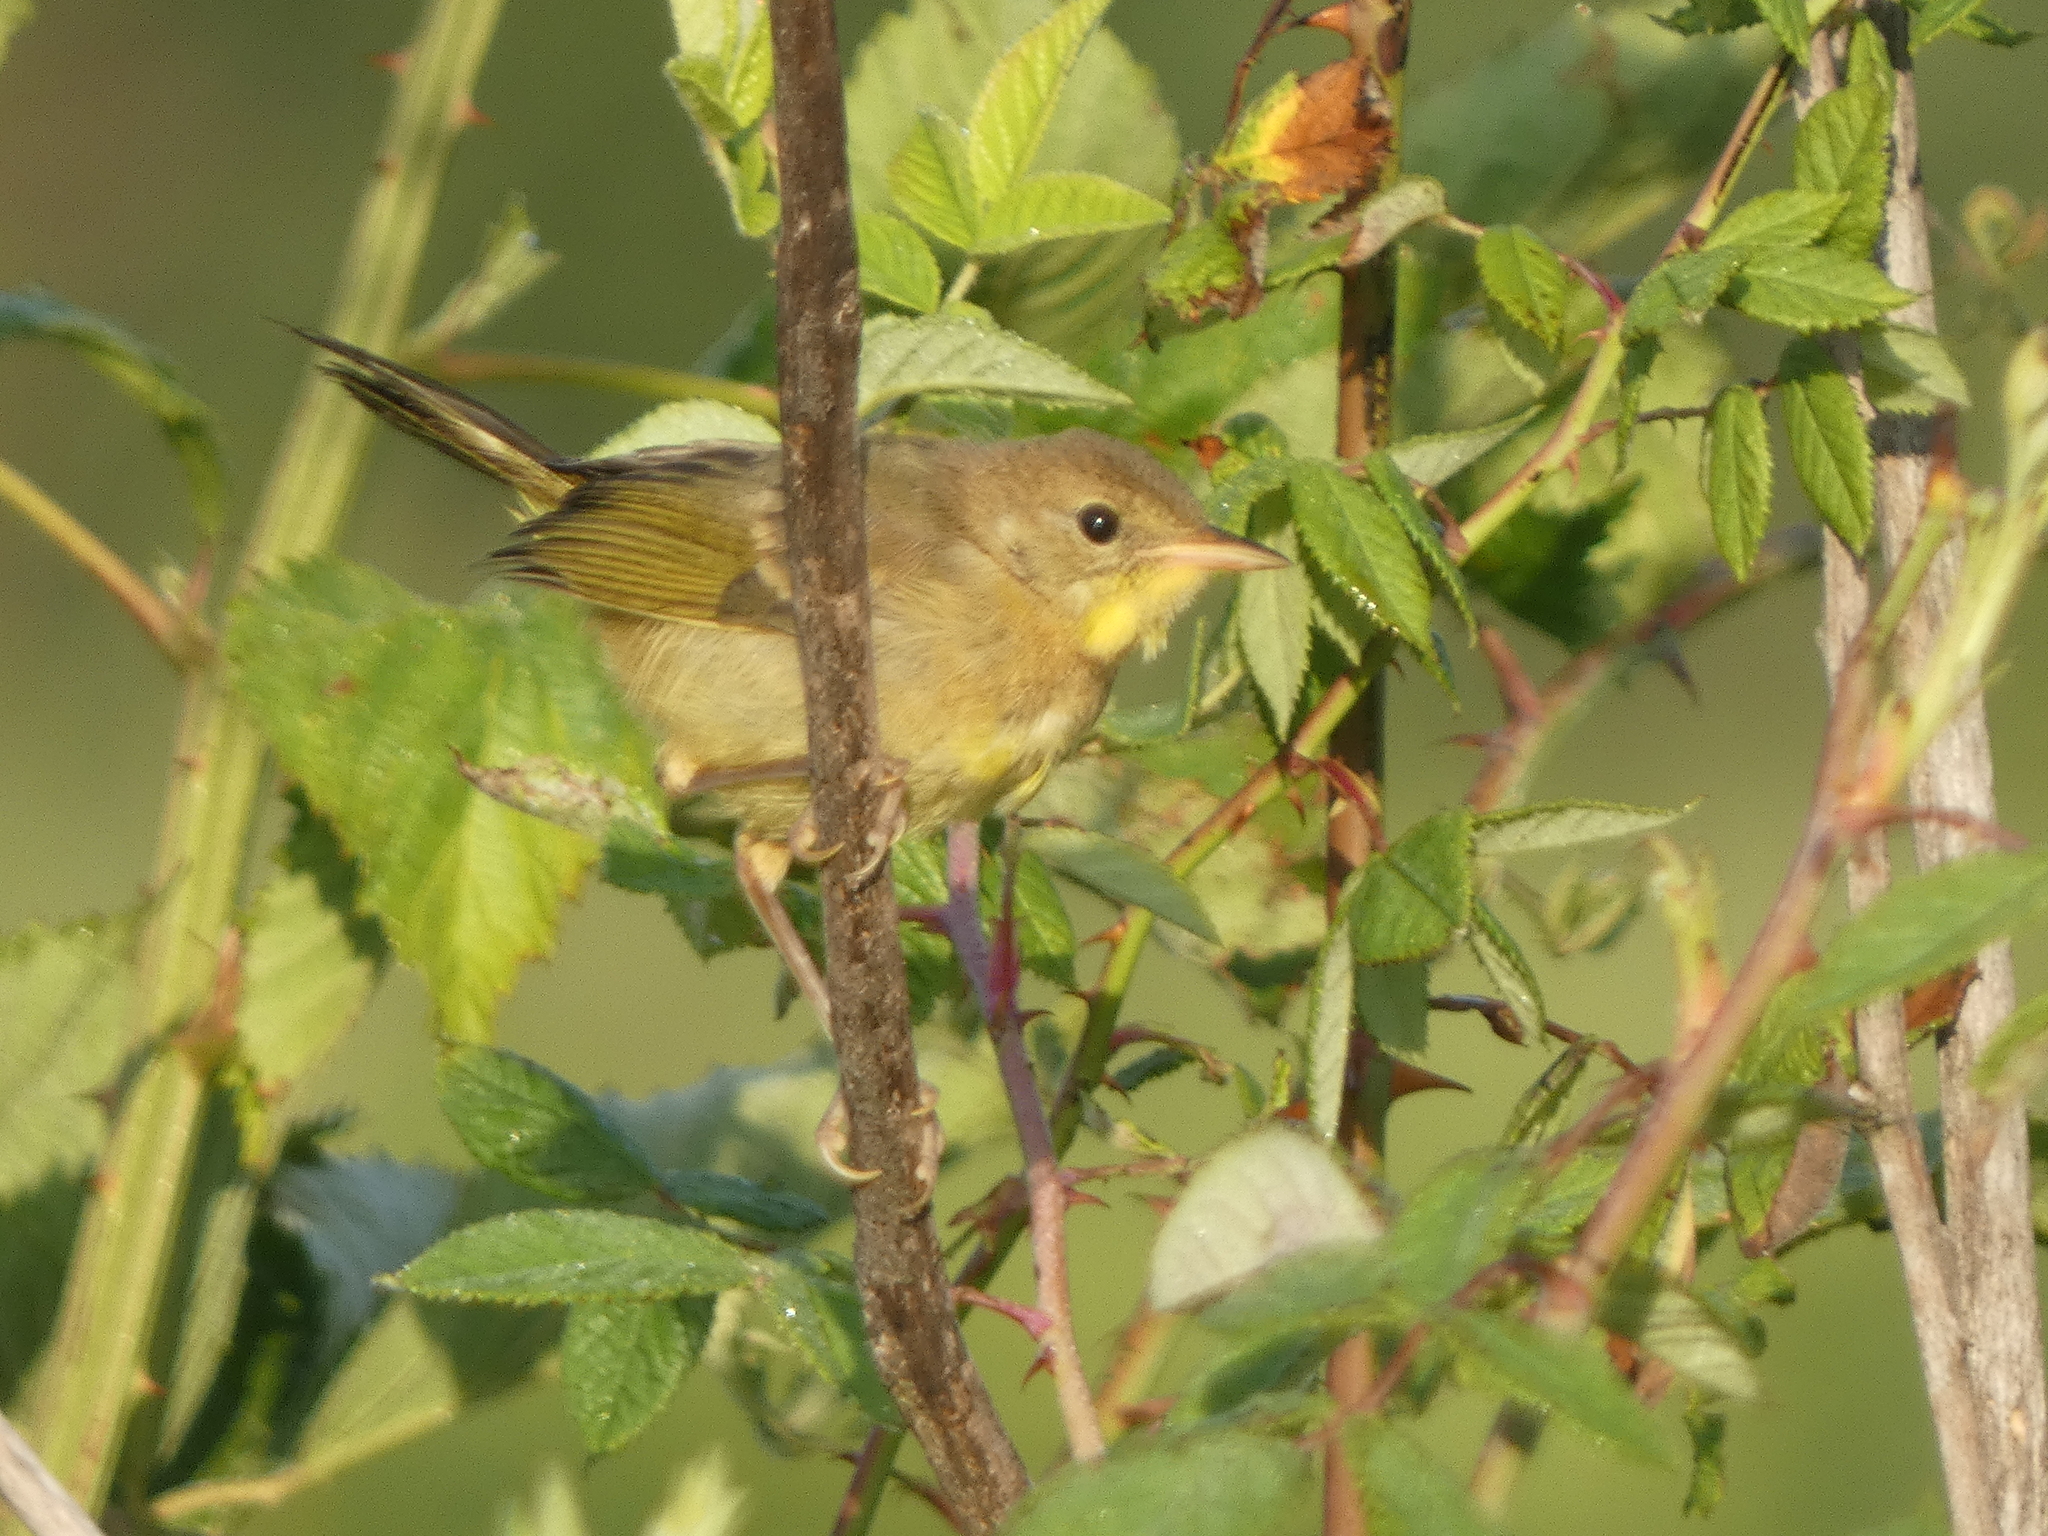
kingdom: Animalia
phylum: Chordata
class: Aves
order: Passeriformes
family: Parulidae
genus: Geothlypis
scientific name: Geothlypis trichas
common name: Common yellowthroat
